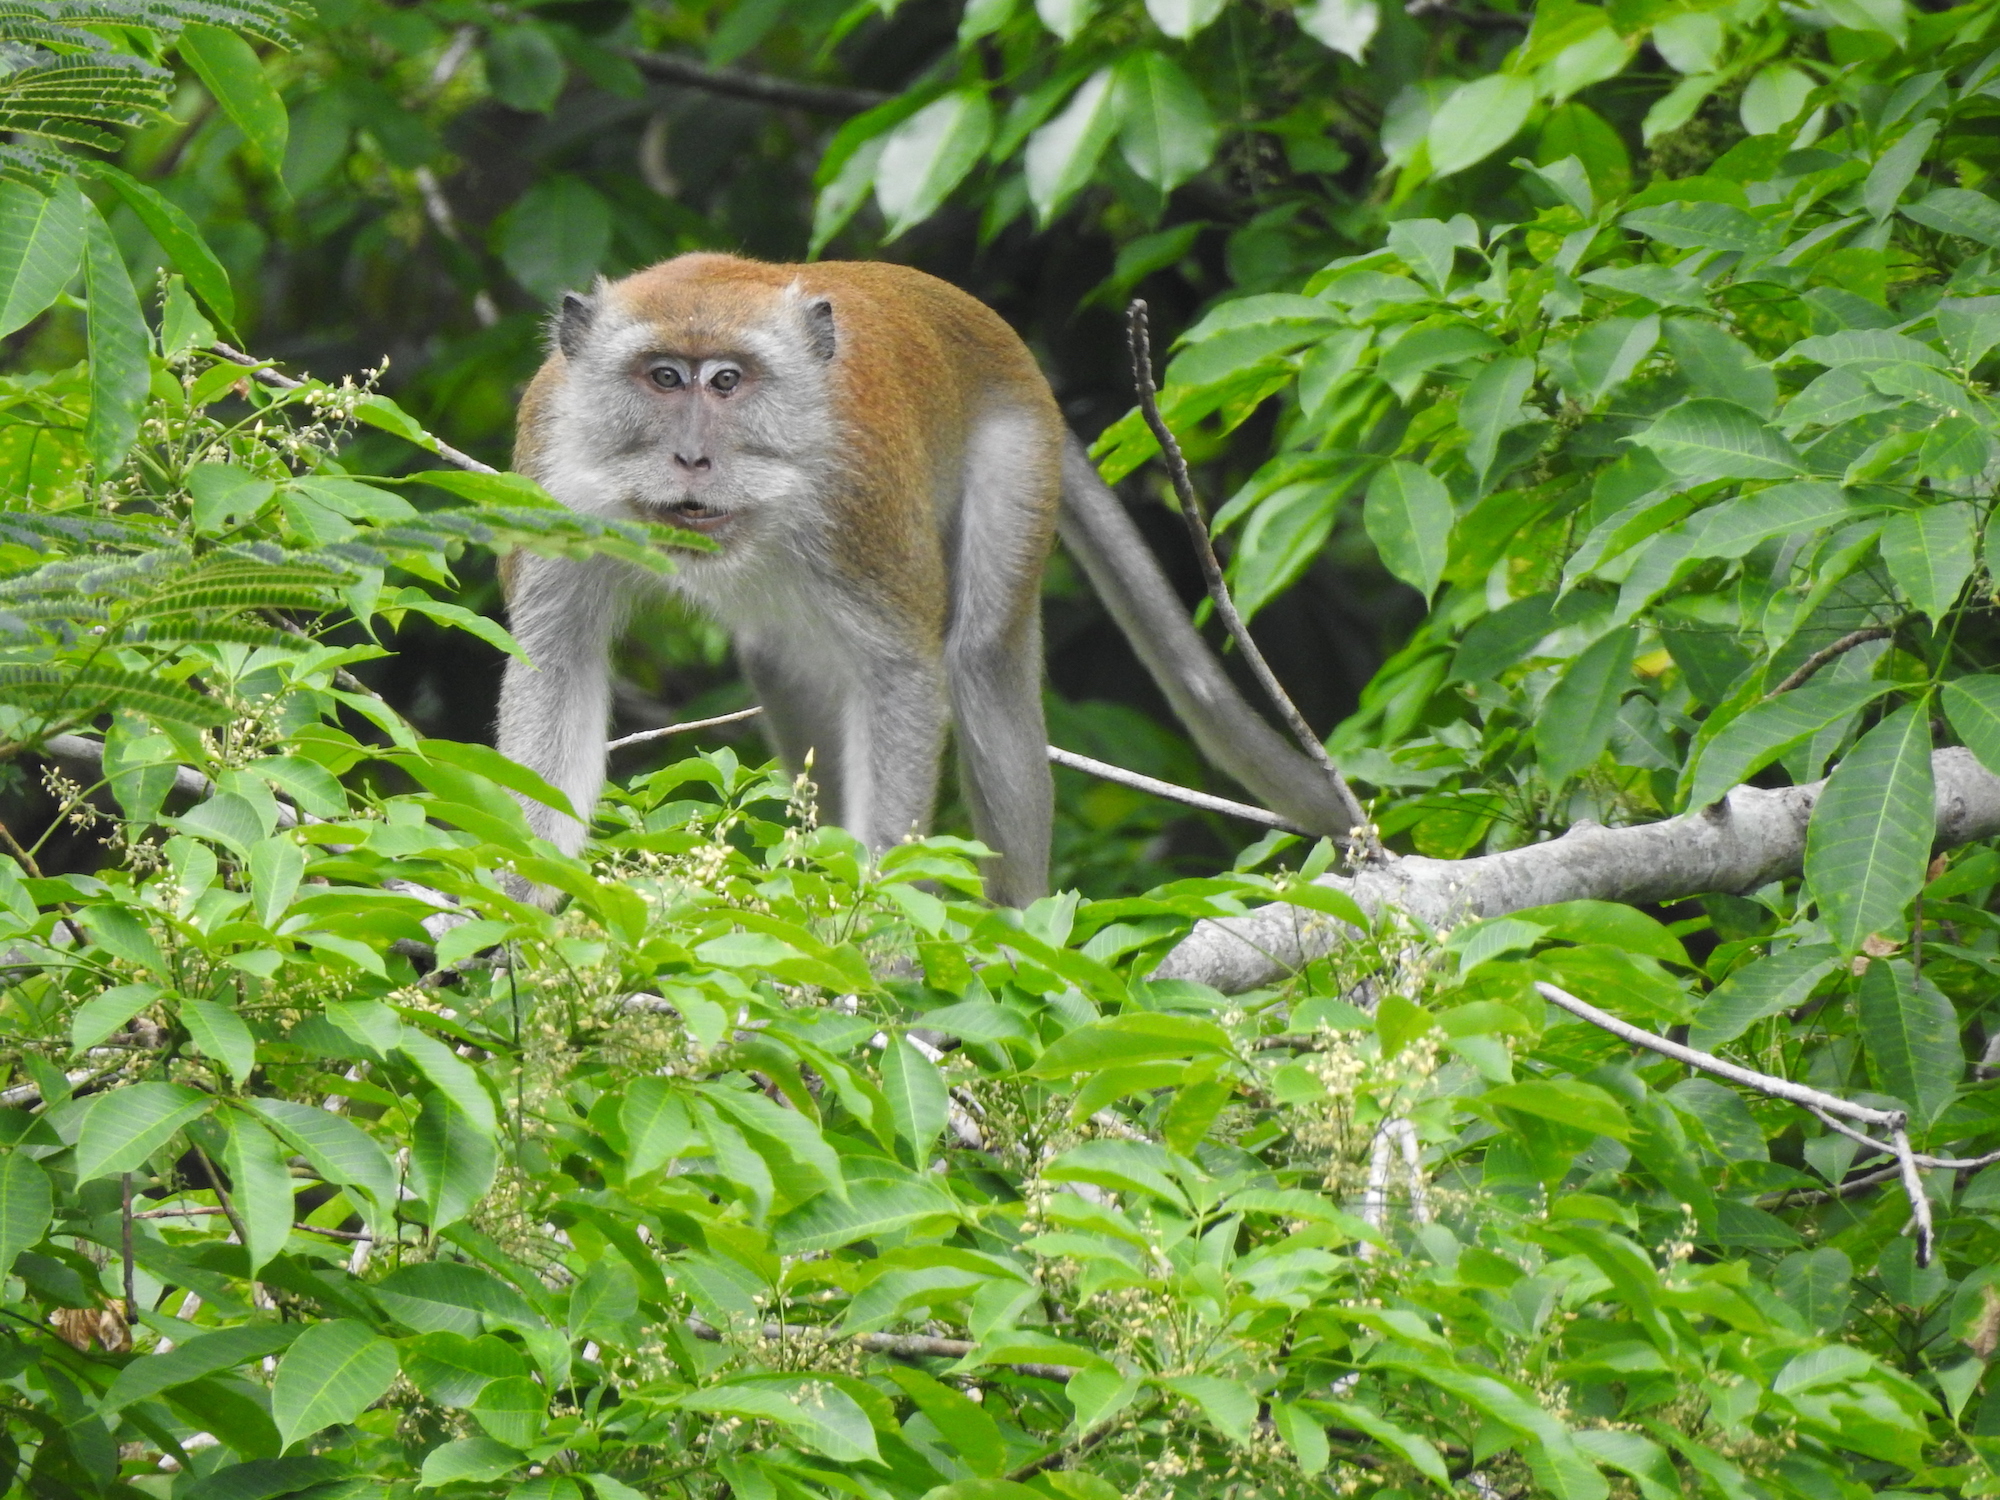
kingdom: Animalia
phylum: Chordata
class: Mammalia
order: Primates
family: Cercopithecidae
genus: Macaca
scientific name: Macaca fascicularis
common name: Crab-eating macaque
